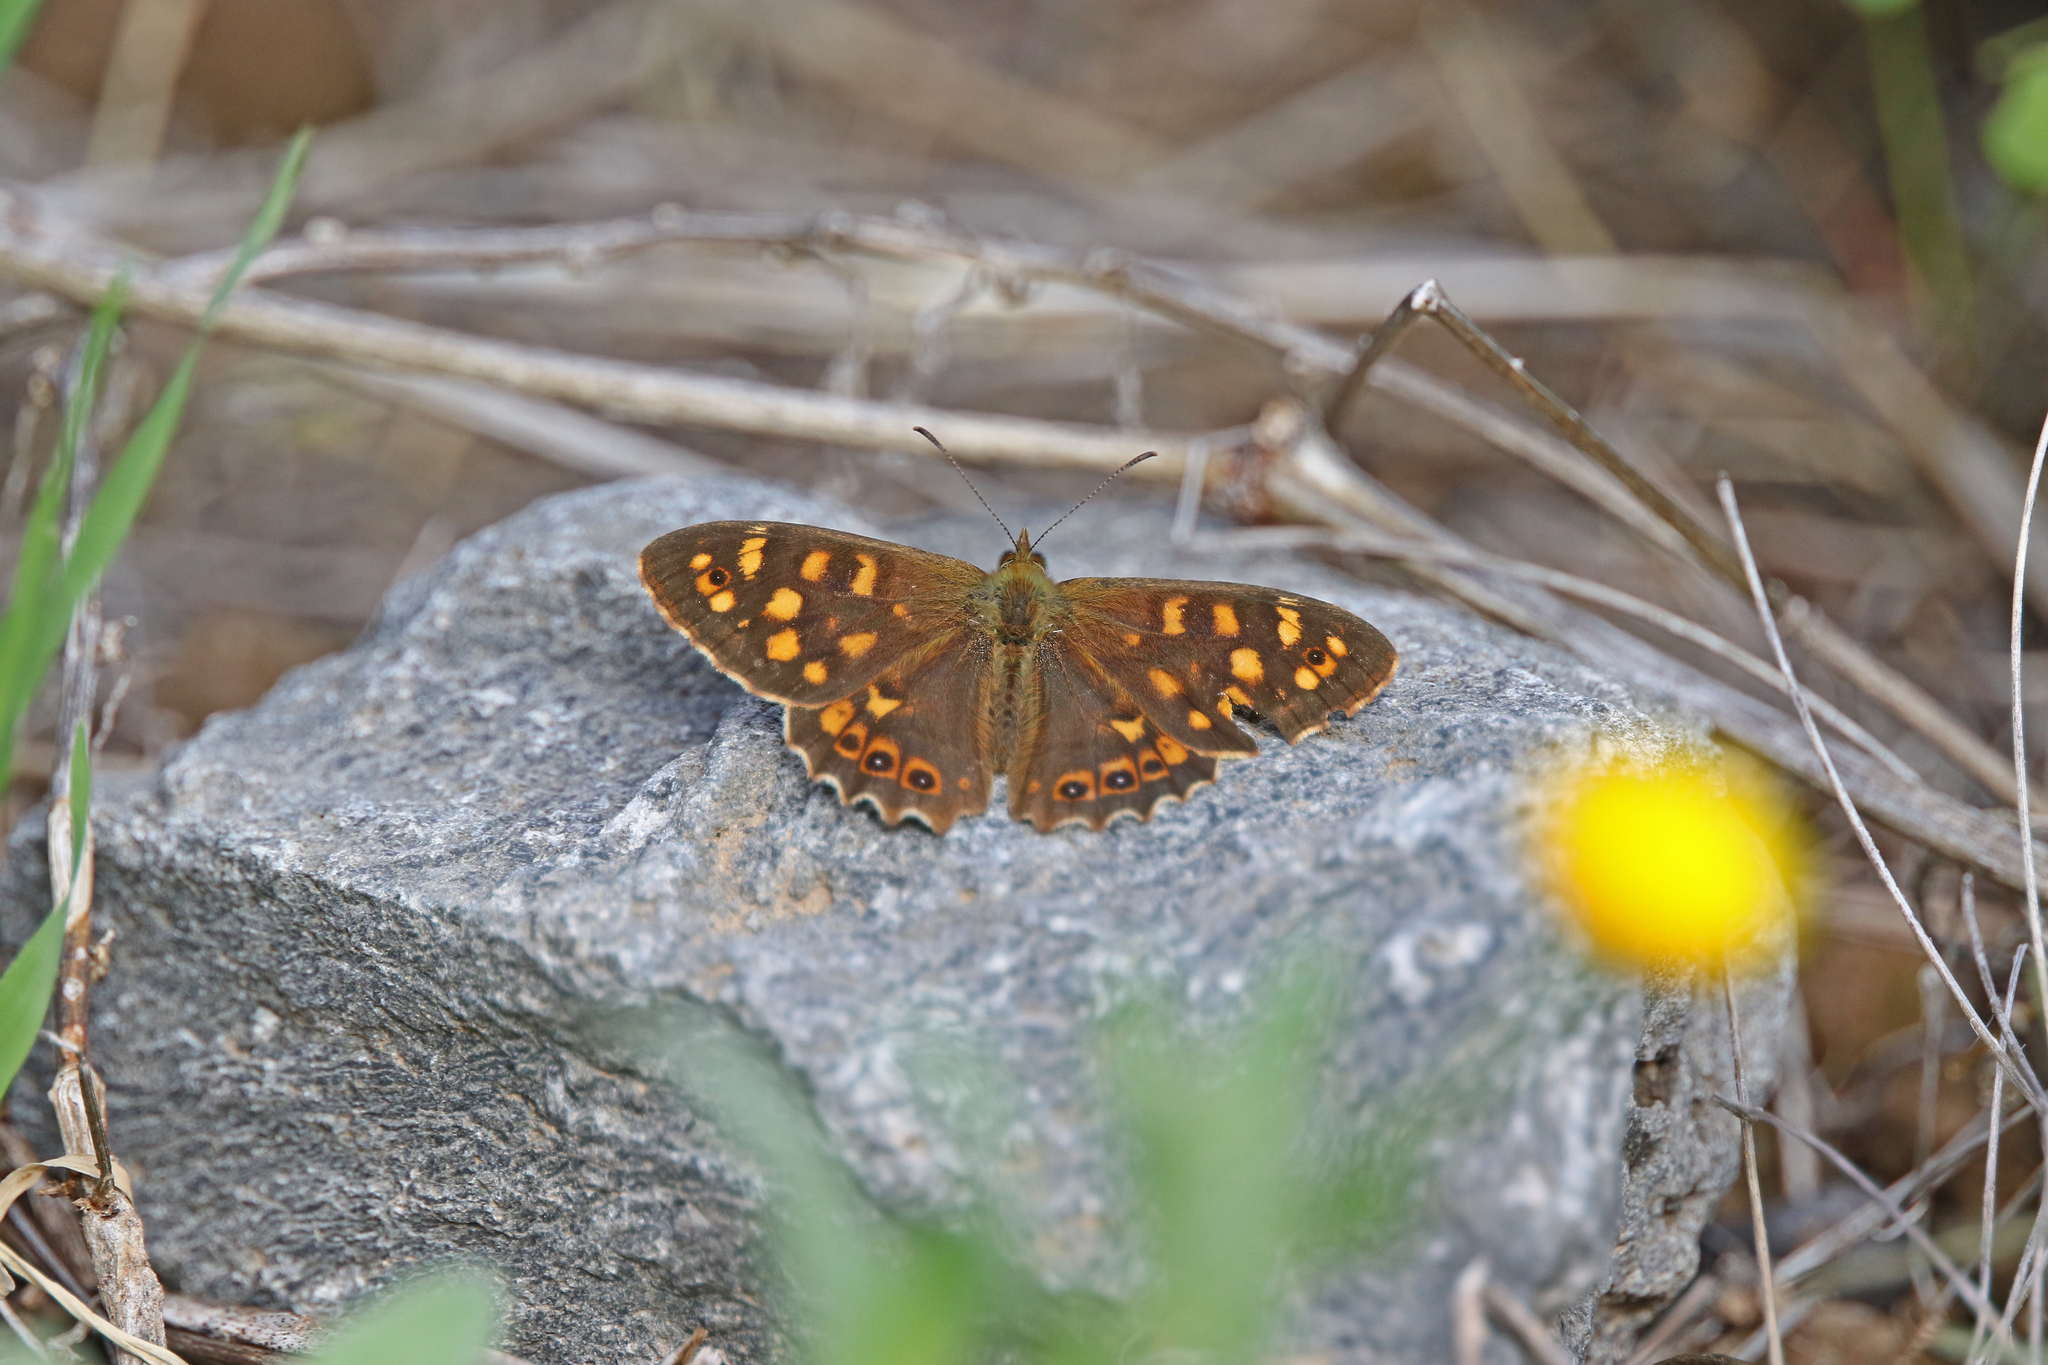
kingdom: Animalia
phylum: Arthropoda
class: Insecta
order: Lepidoptera
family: Nymphalidae
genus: Pararge
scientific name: Pararge aegeria
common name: Speckled wood
